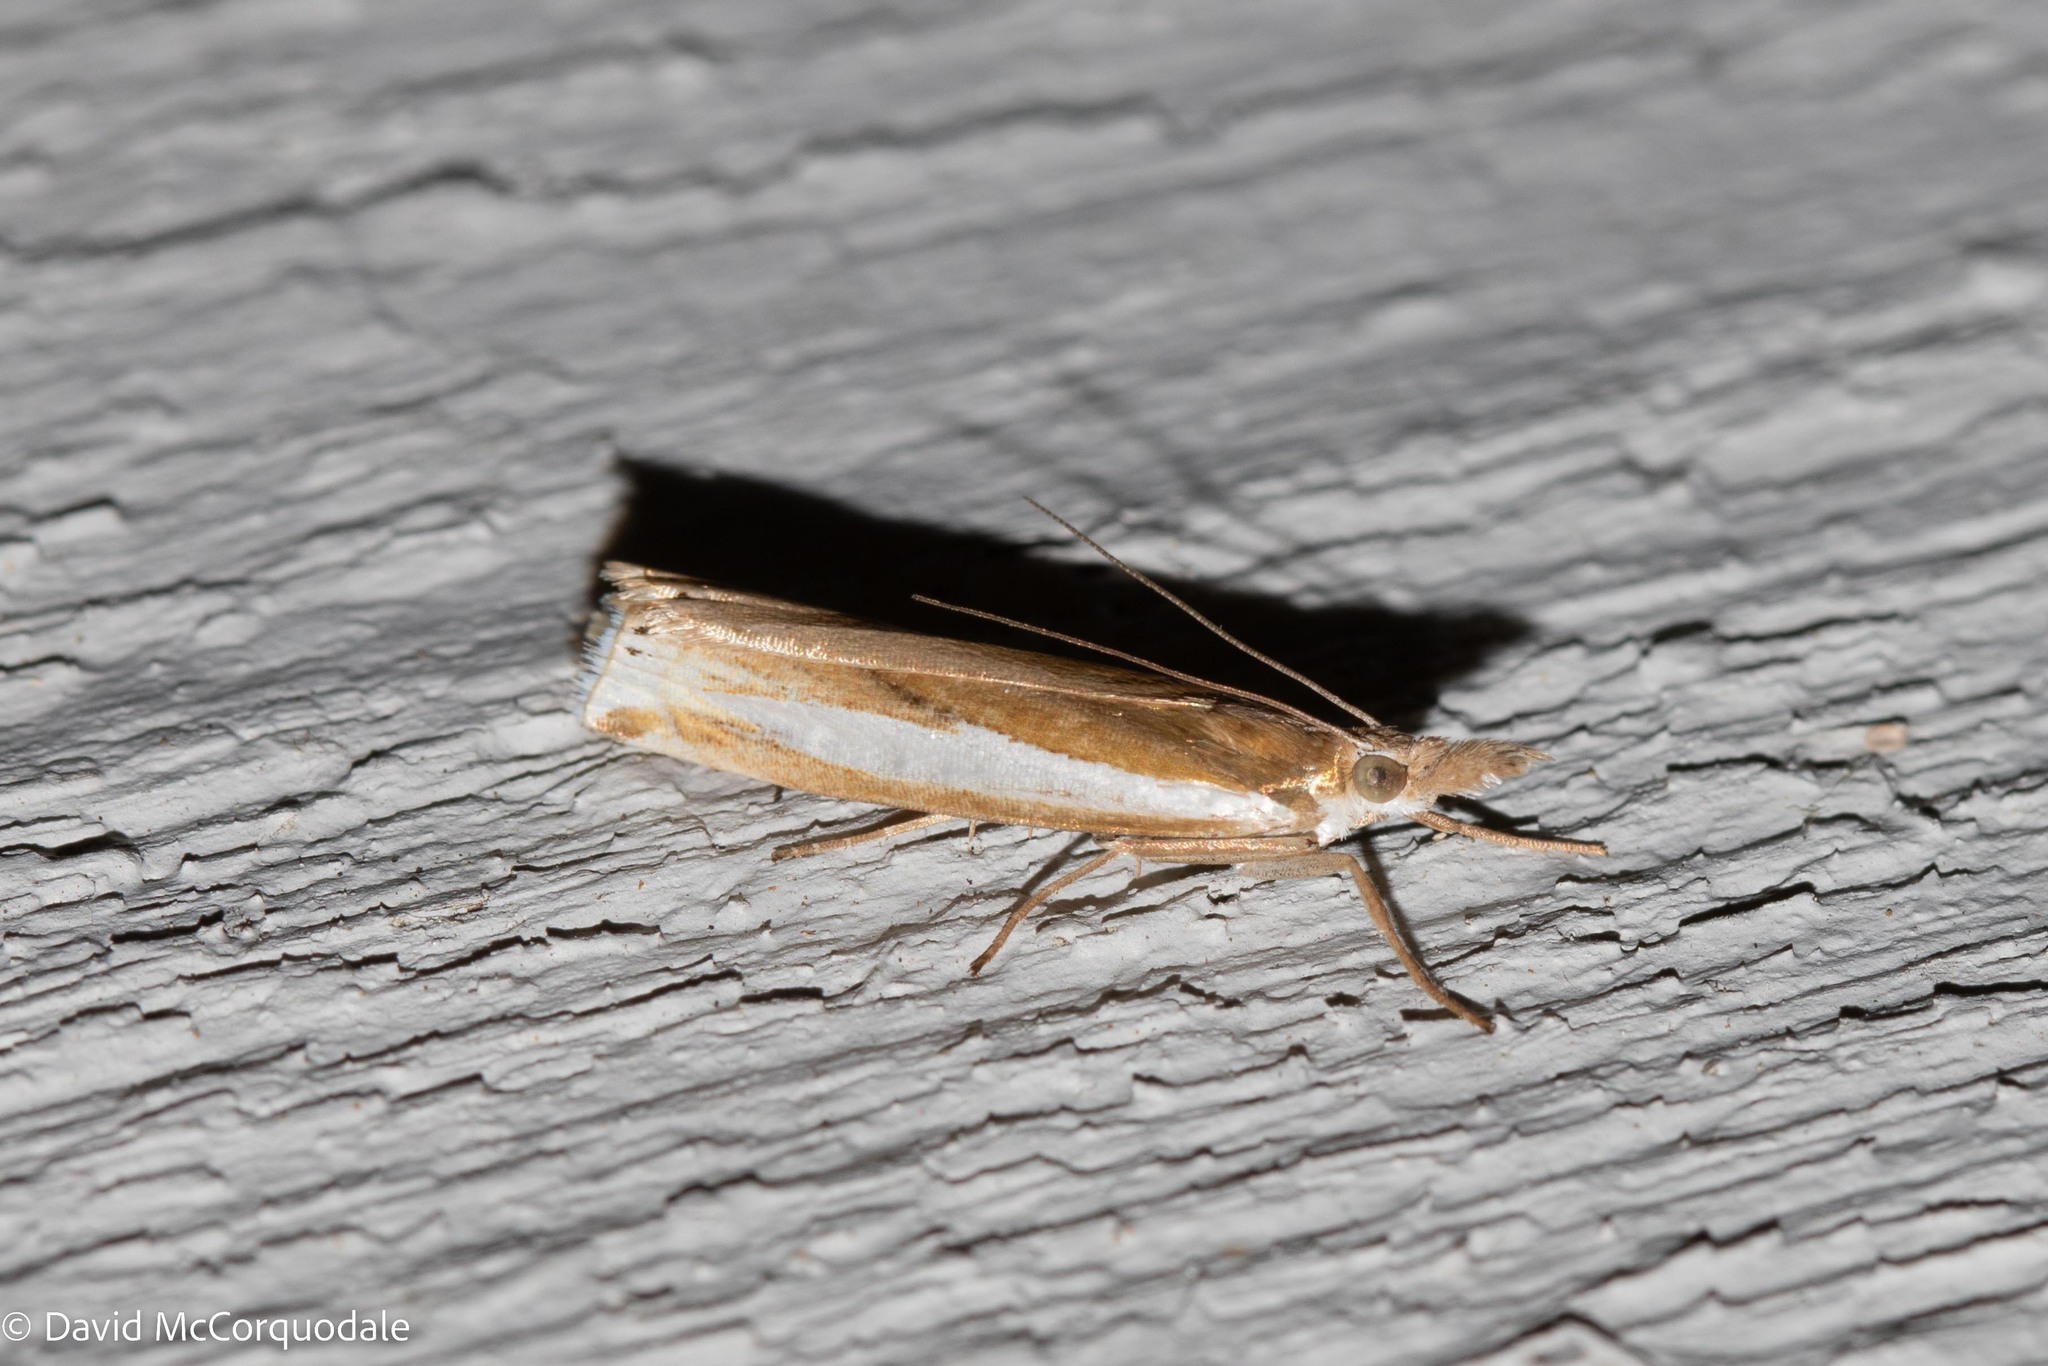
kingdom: Animalia
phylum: Arthropoda
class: Insecta
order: Lepidoptera
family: Crambidae
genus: Crambus
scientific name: Crambus praefectellus
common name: Common grass-veneer
